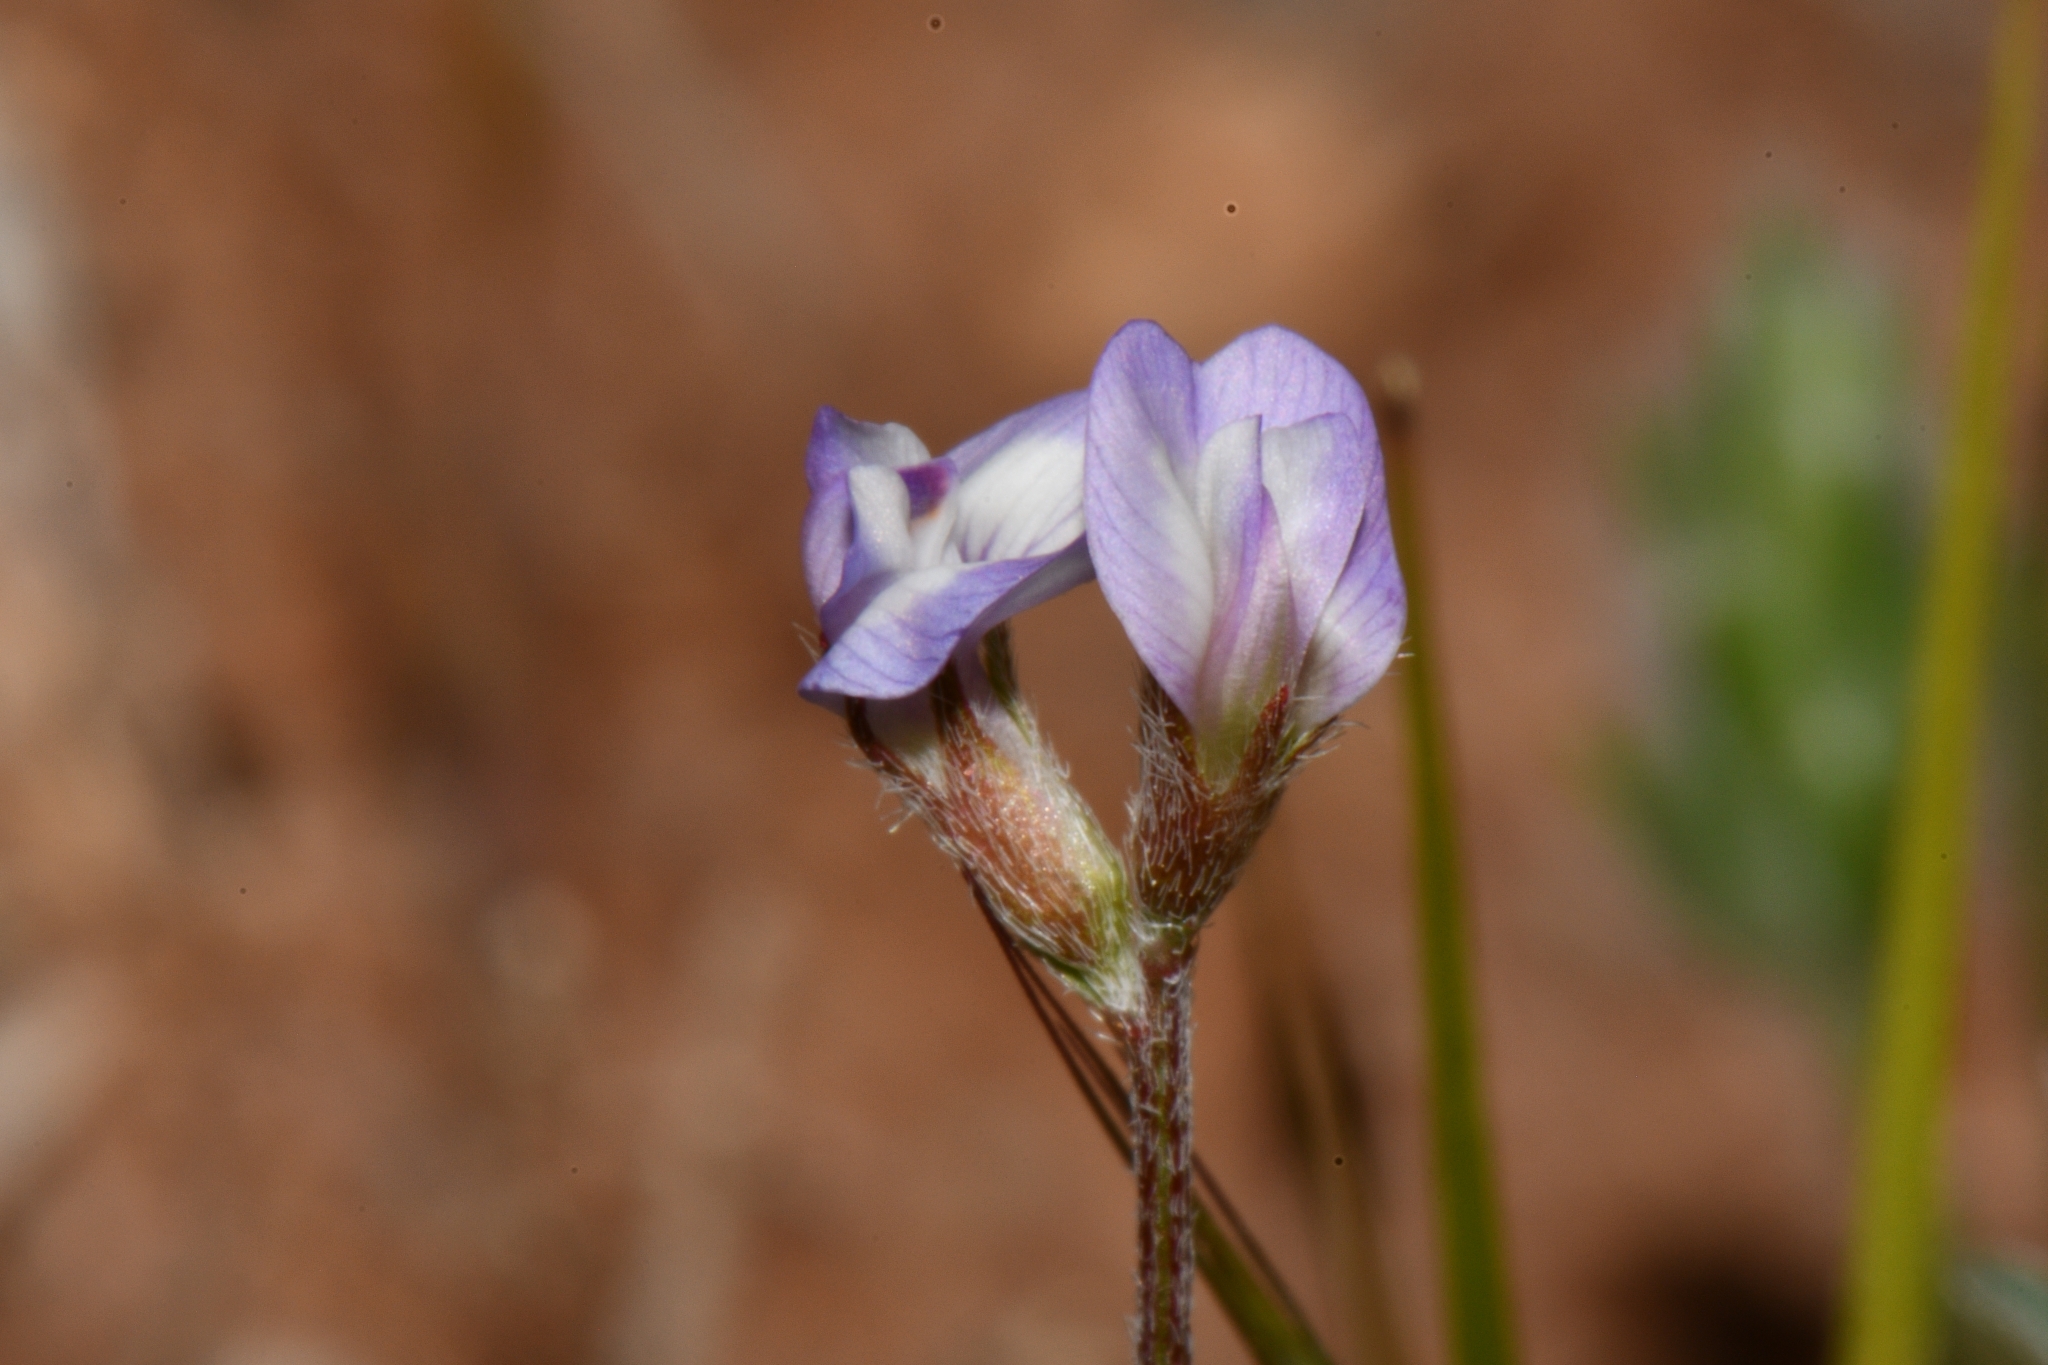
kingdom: Plantae
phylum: Tracheophyta
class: Magnoliopsida
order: Fabales
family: Fabaceae
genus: Astragalus
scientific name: Astragalus nuttallianus
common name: Smallflowered milkvetch
